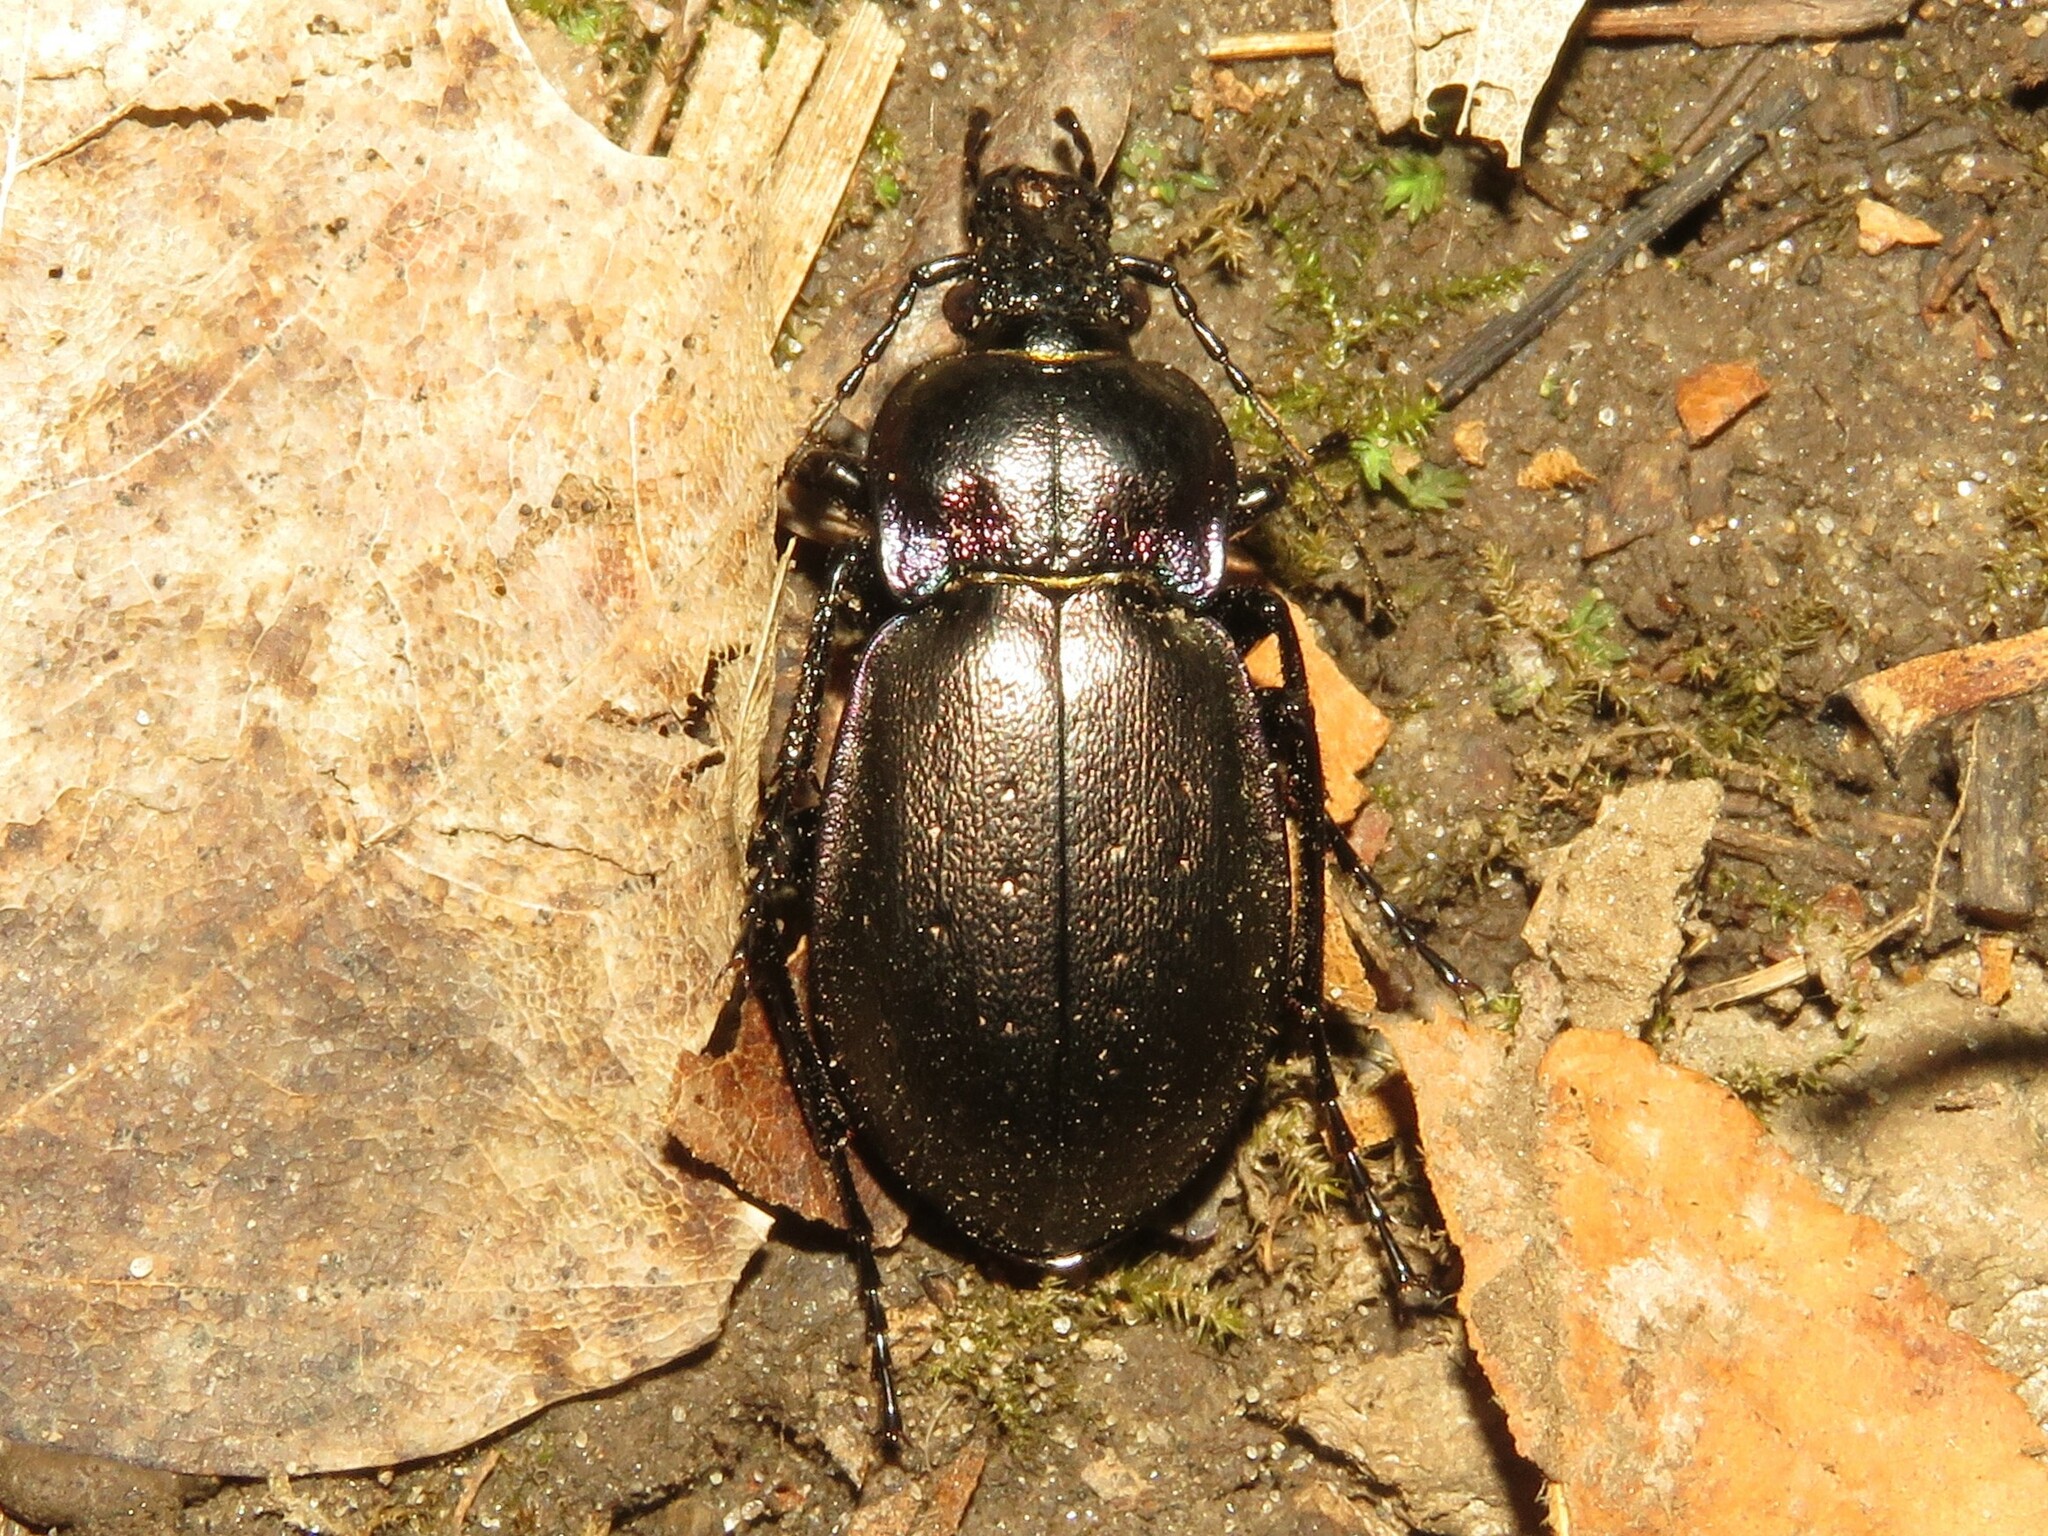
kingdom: Animalia
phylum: Arthropoda
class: Insecta
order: Coleoptera
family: Carabidae
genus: Carabus
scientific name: Carabus nemoralis
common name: European ground beetle
